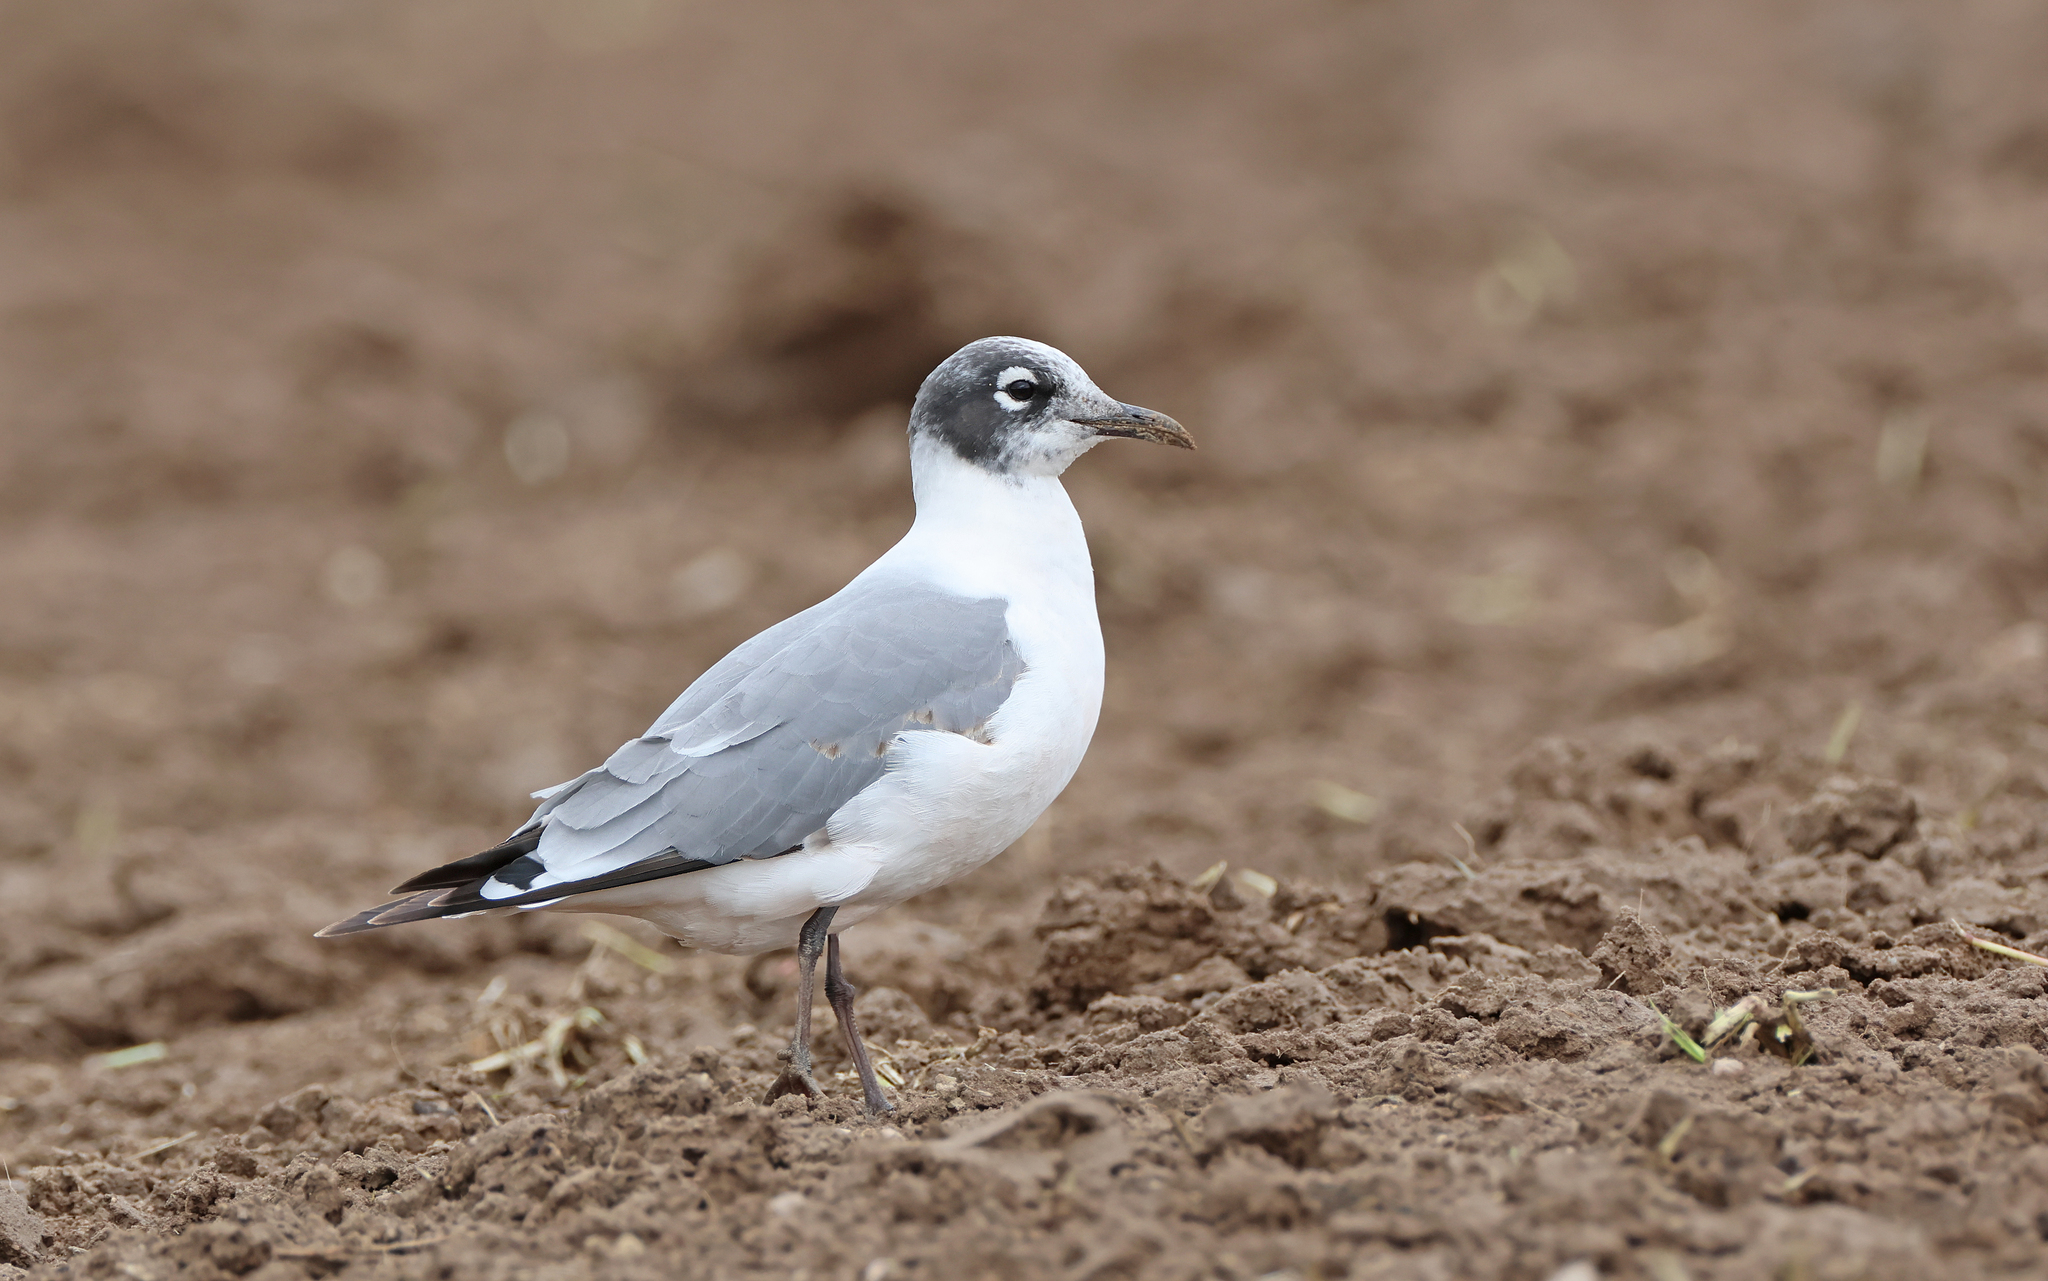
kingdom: Animalia
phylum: Chordata
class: Aves
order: Charadriiformes
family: Laridae
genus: Leucophaeus
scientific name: Leucophaeus pipixcan
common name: Franklin's gull
